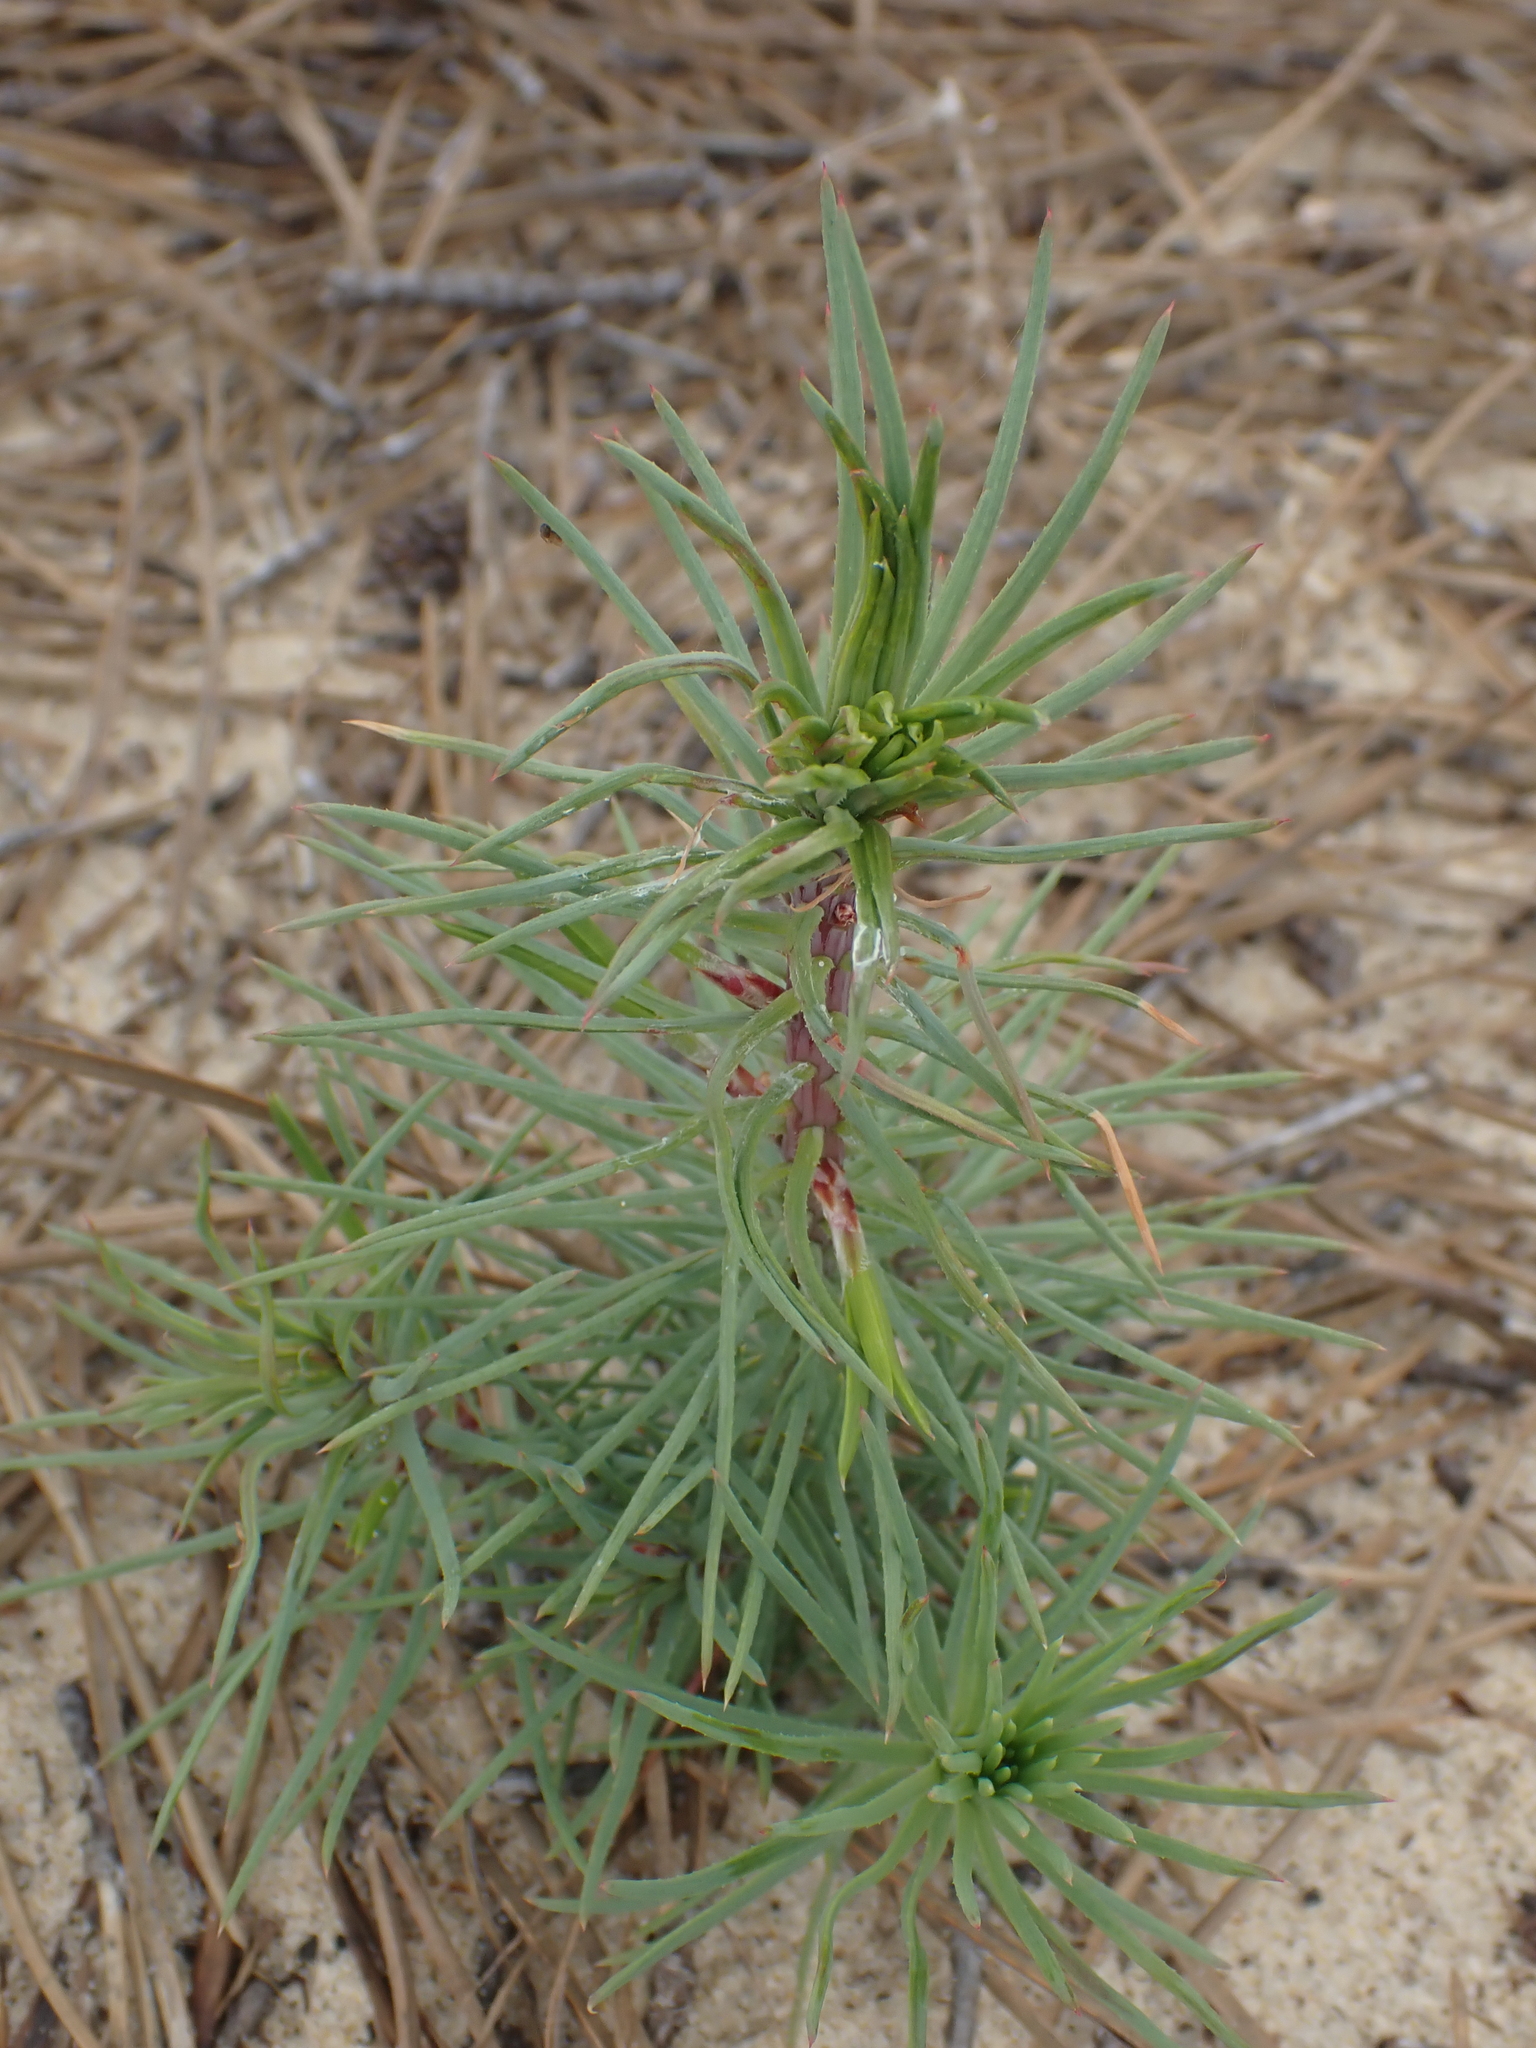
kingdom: Plantae
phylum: Tracheophyta
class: Pinopsida
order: Pinales
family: Pinaceae
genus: Pinus
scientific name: Pinus pinaster
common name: Maritime pine
